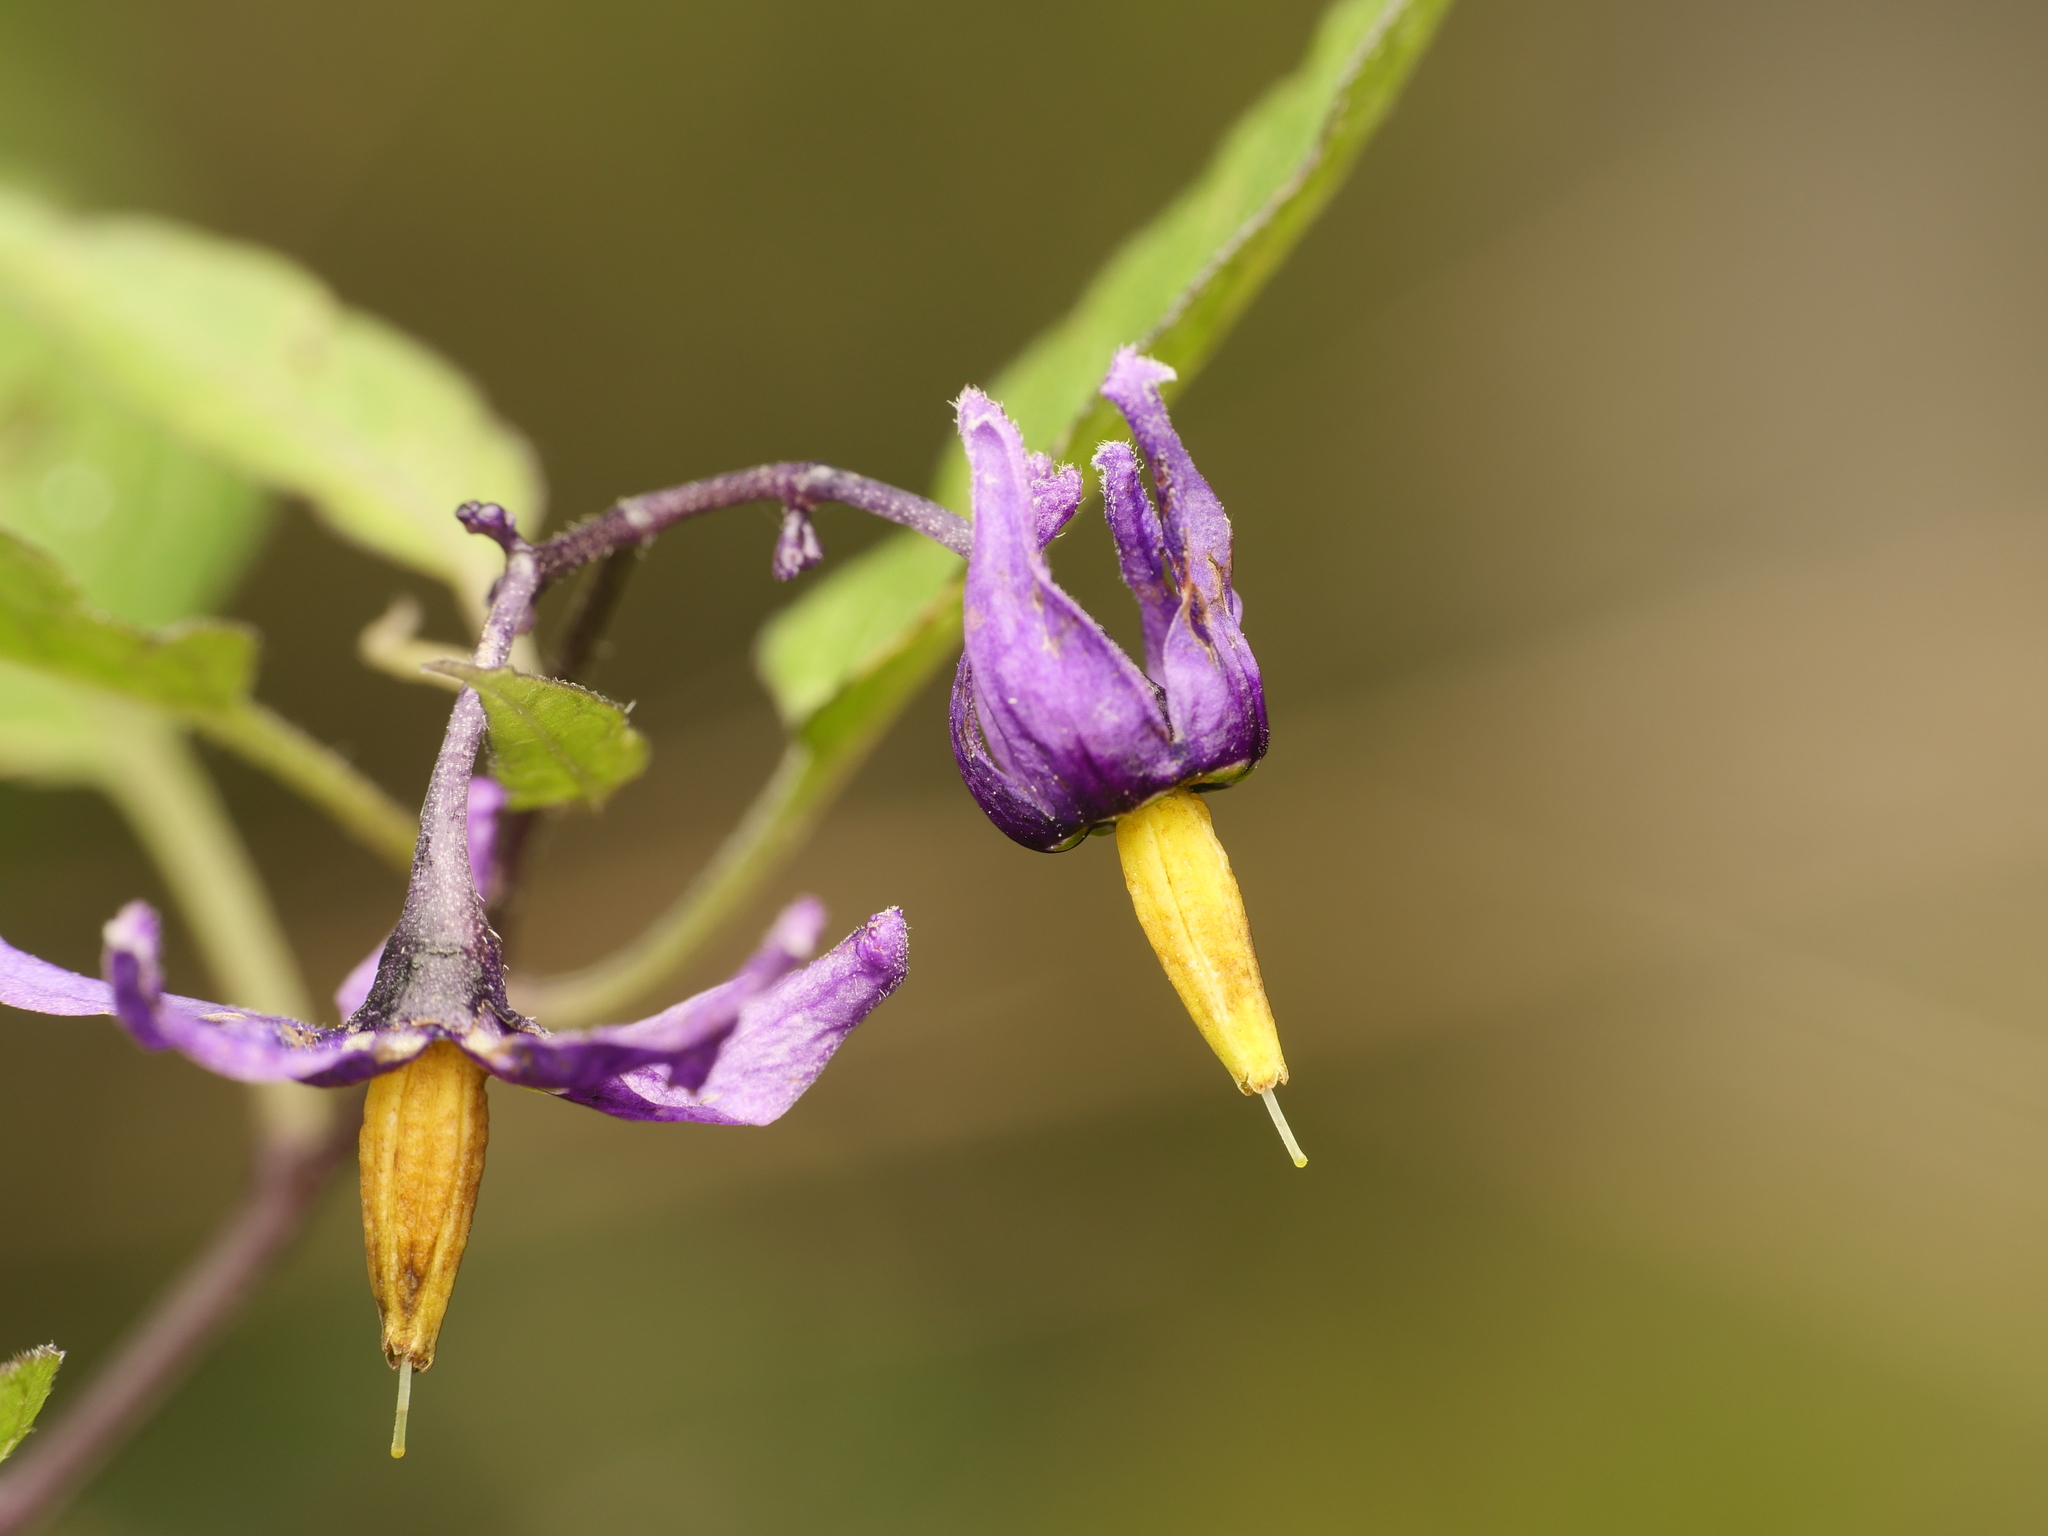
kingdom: Plantae
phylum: Tracheophyta
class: Magnoliopsida
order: Solanales
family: Solanaceae
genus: Solanum
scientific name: Solanum dulcamara
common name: Climbing nightshade
